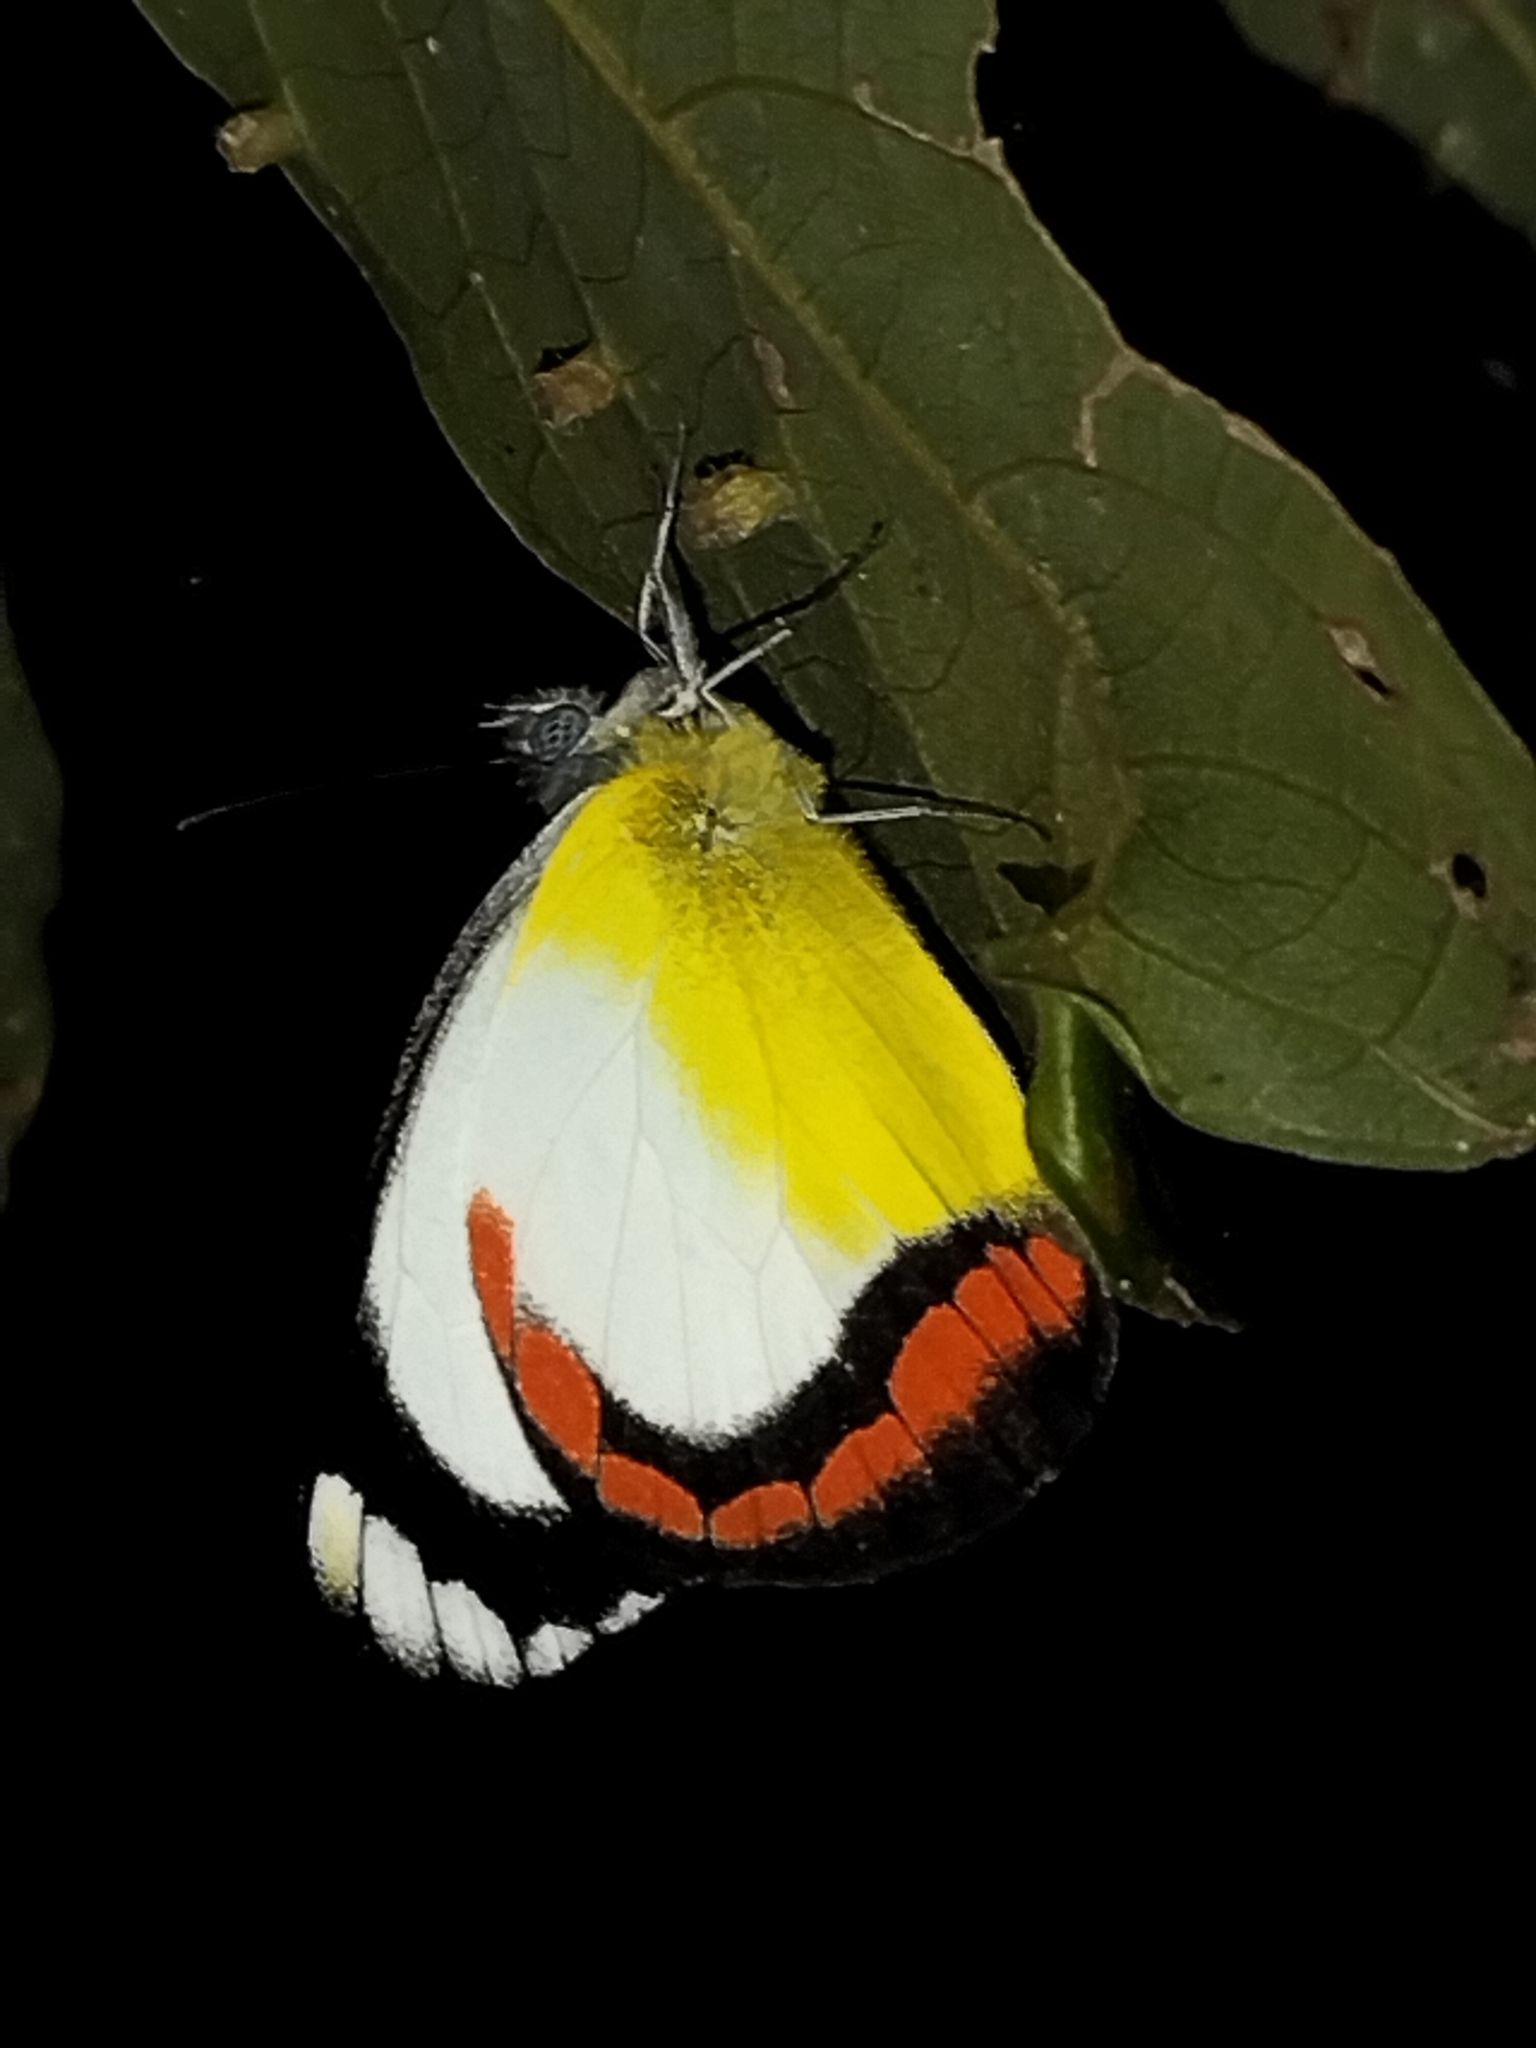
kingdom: Animalia
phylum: Arthropoda
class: Insecta
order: Lepidoptera
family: Pieridae
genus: Delias
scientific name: Delias mysis
